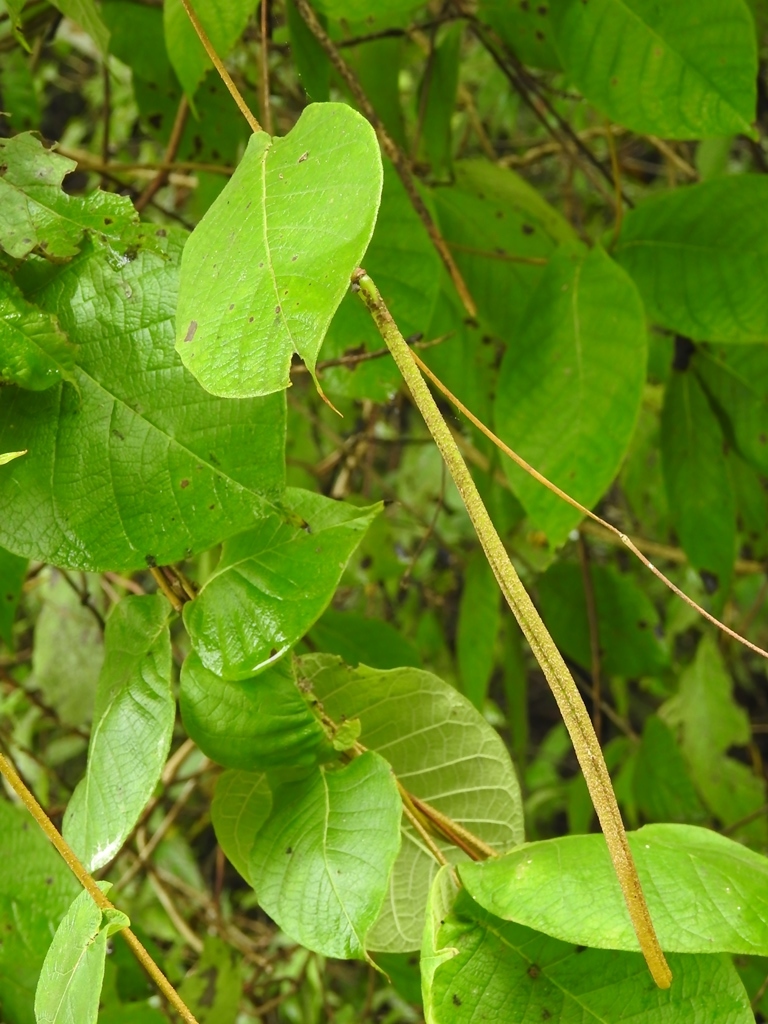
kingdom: Plantae
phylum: Tracheophyta
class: Magnoliopsida
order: Gentianales
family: Apocynaceae
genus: Mandevilla
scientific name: Mandevilla subsessilis
